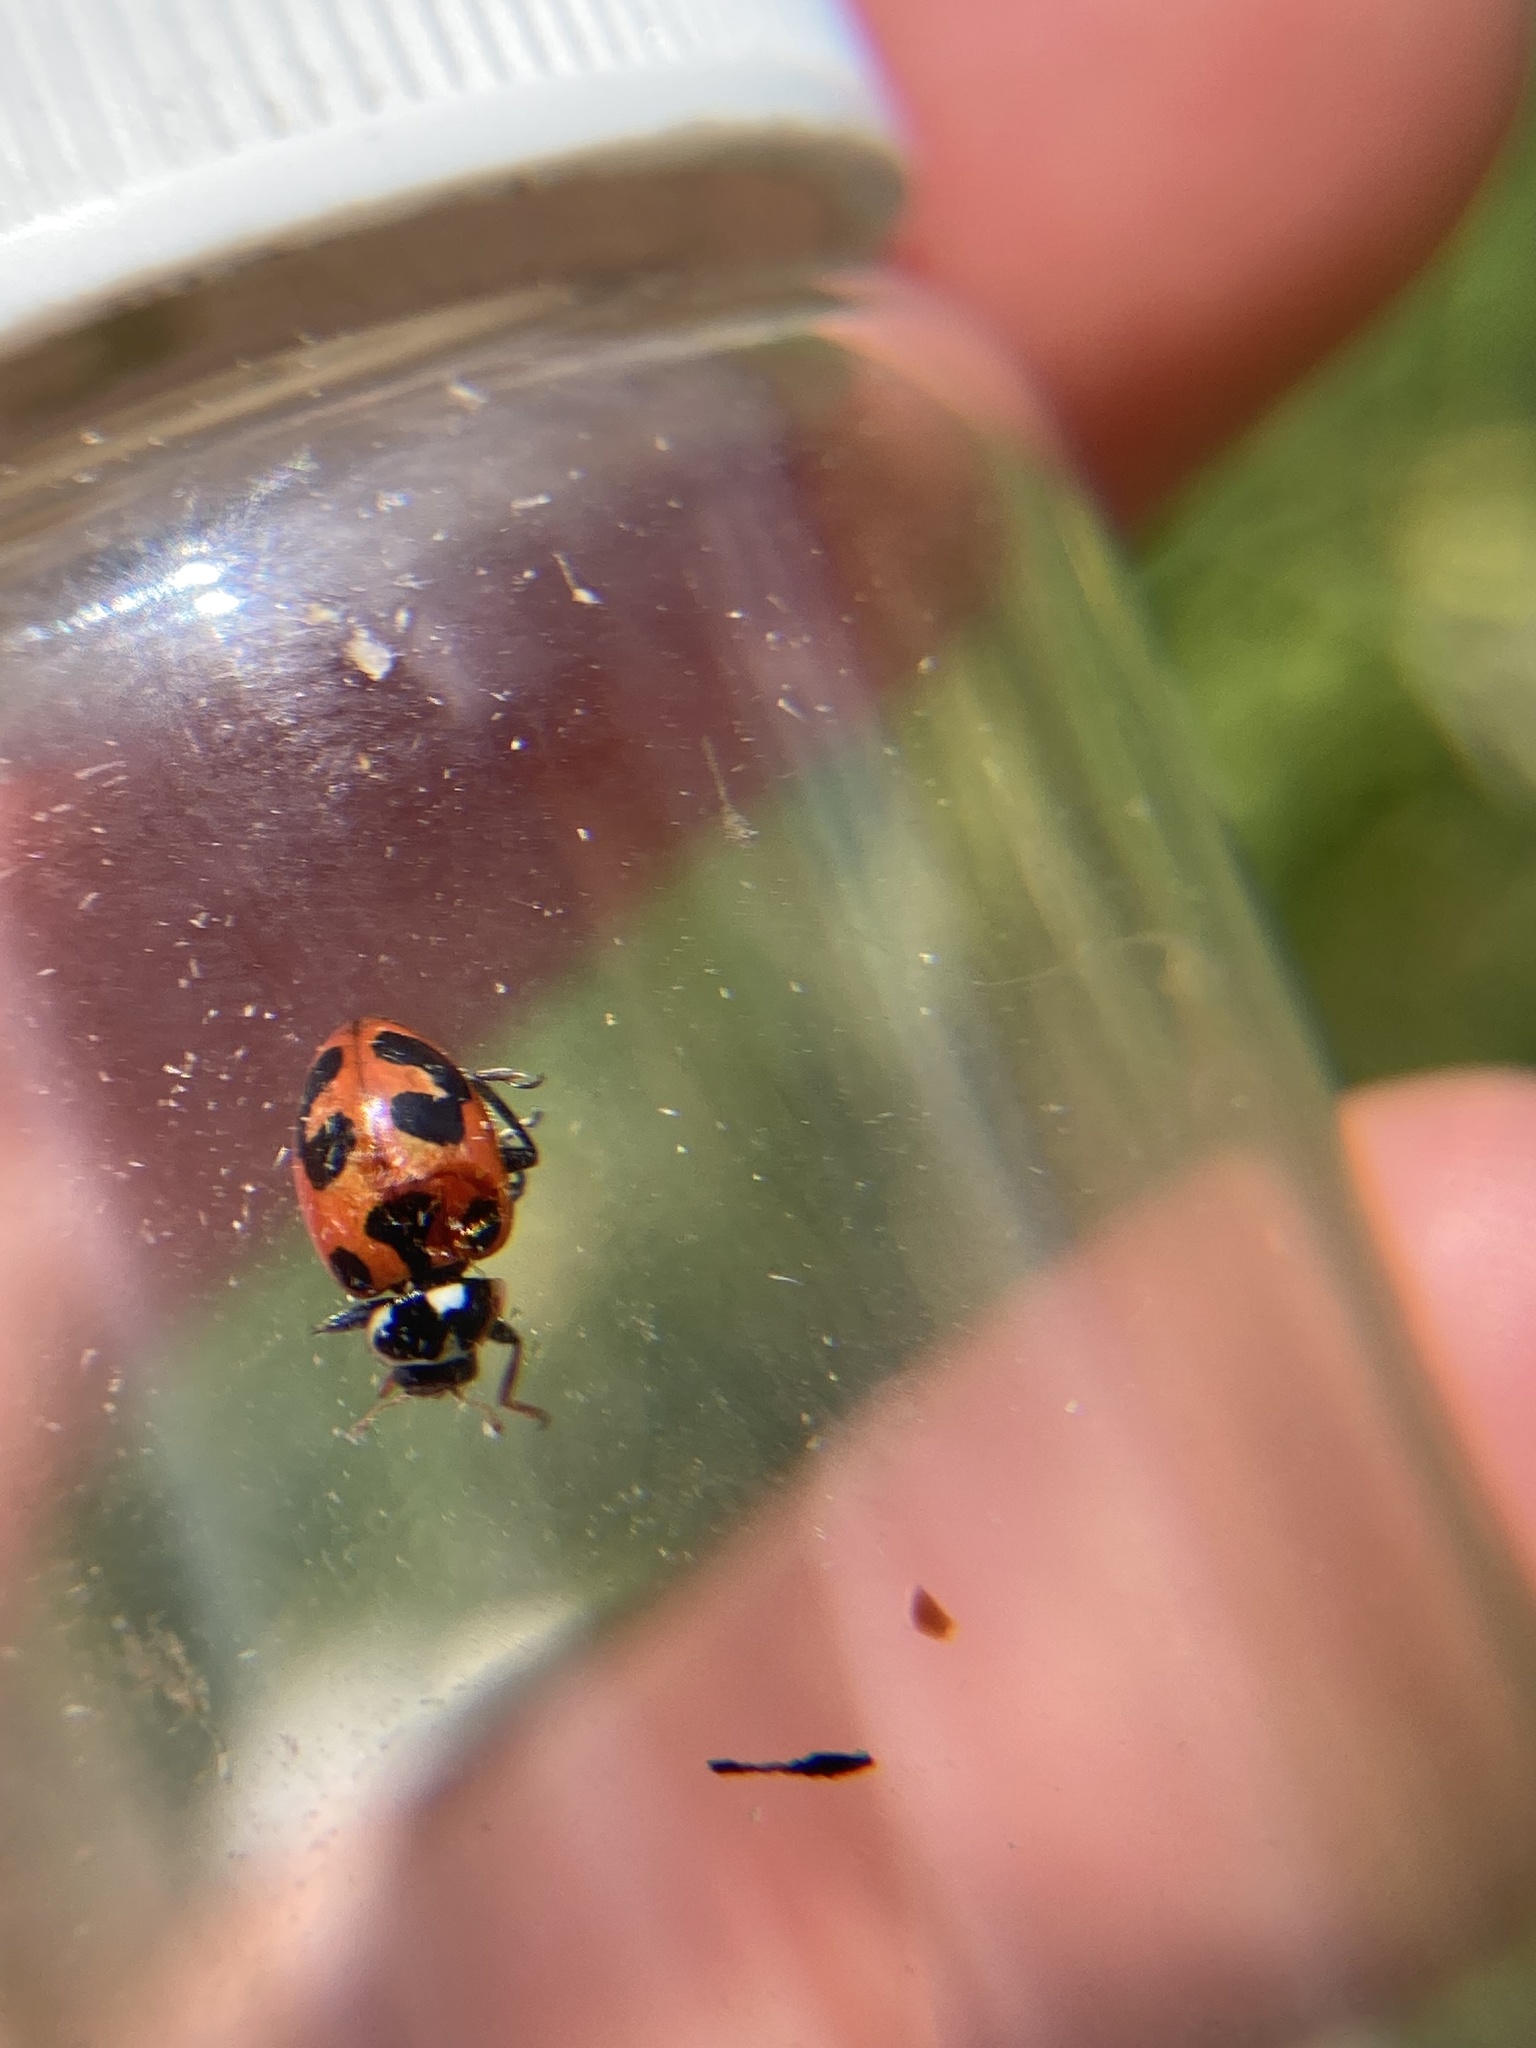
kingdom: Animalia
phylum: Arthropoda
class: Insecta
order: Coleoptera
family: Coccinellidae
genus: Hippodamia
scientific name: Hippodamia parenthesis
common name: Parenthesis lady beetle
